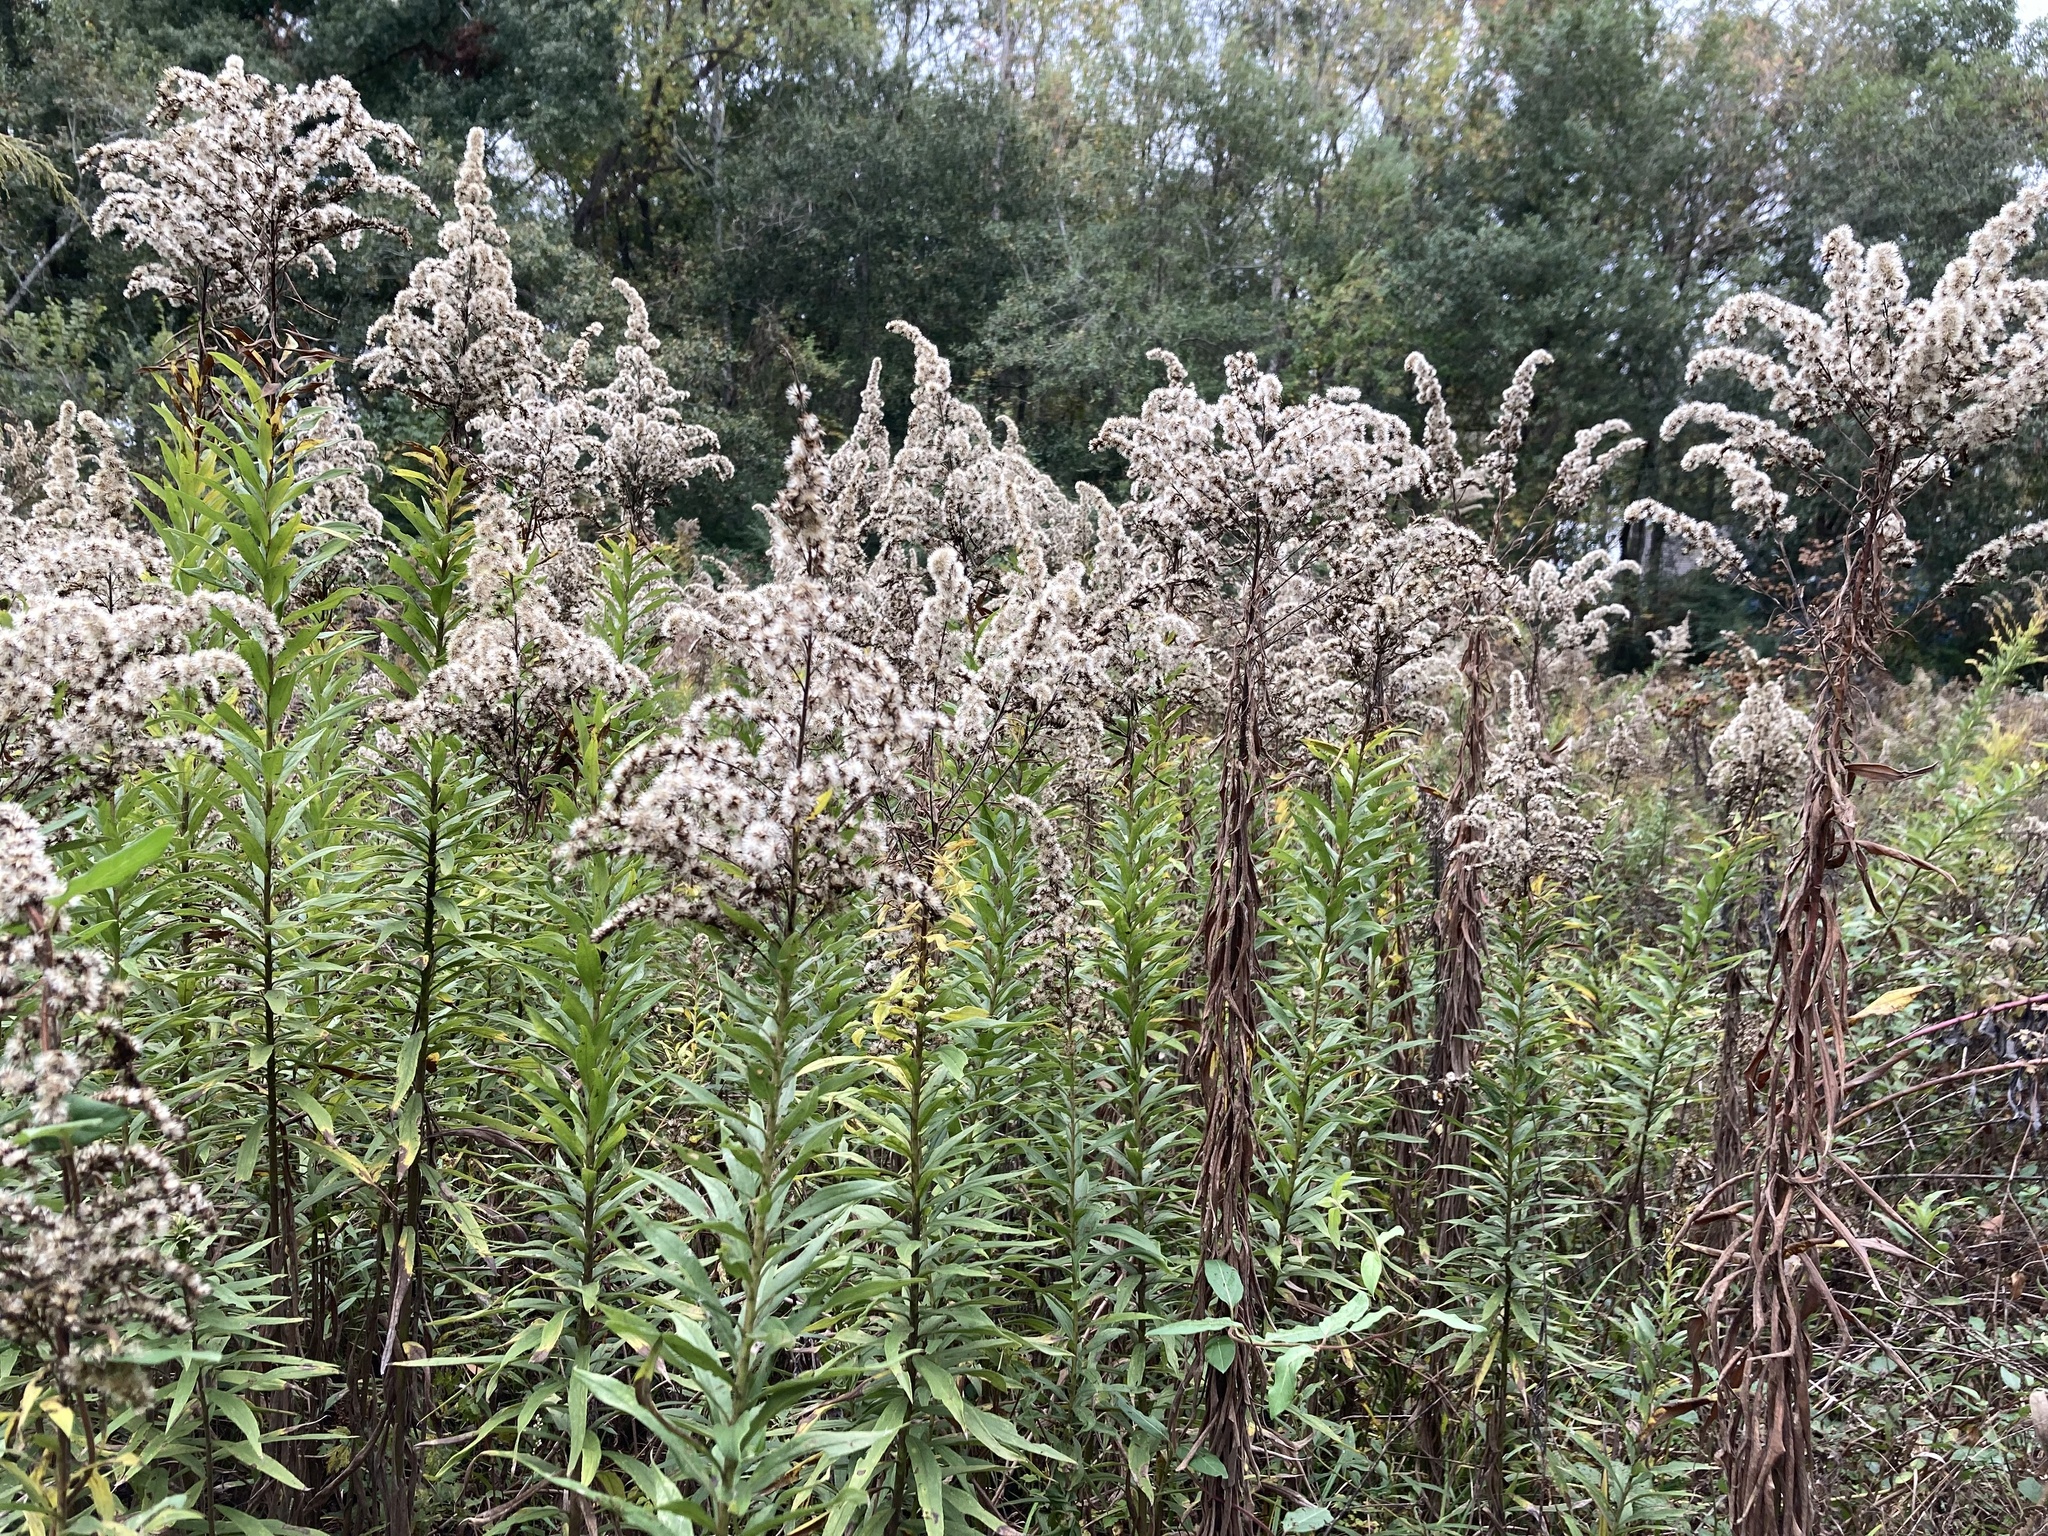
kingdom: Plantae
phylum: Tracheophyta
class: Magnoliopsida
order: Asterales
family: Asteraceae
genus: Solidago
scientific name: Solidago altissima
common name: Late goldenrod
